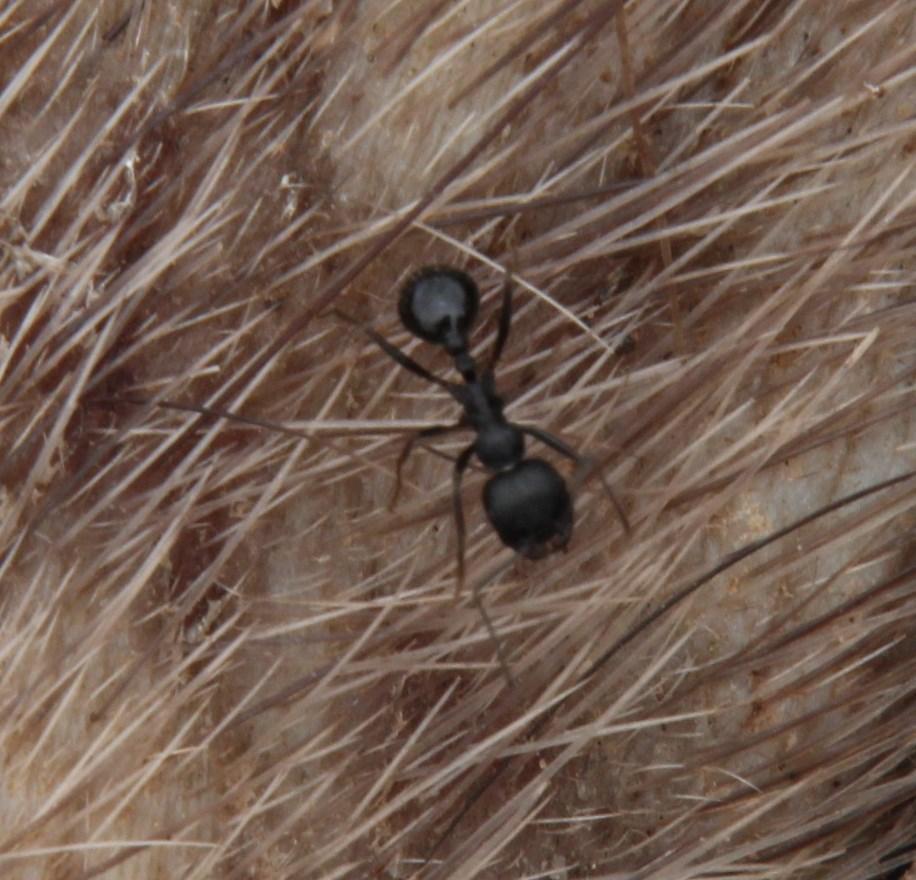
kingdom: Animalia
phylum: Arthropoda
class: Insecta
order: Hymenoptera
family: Formicidae
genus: Messor
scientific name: Messor capensis
